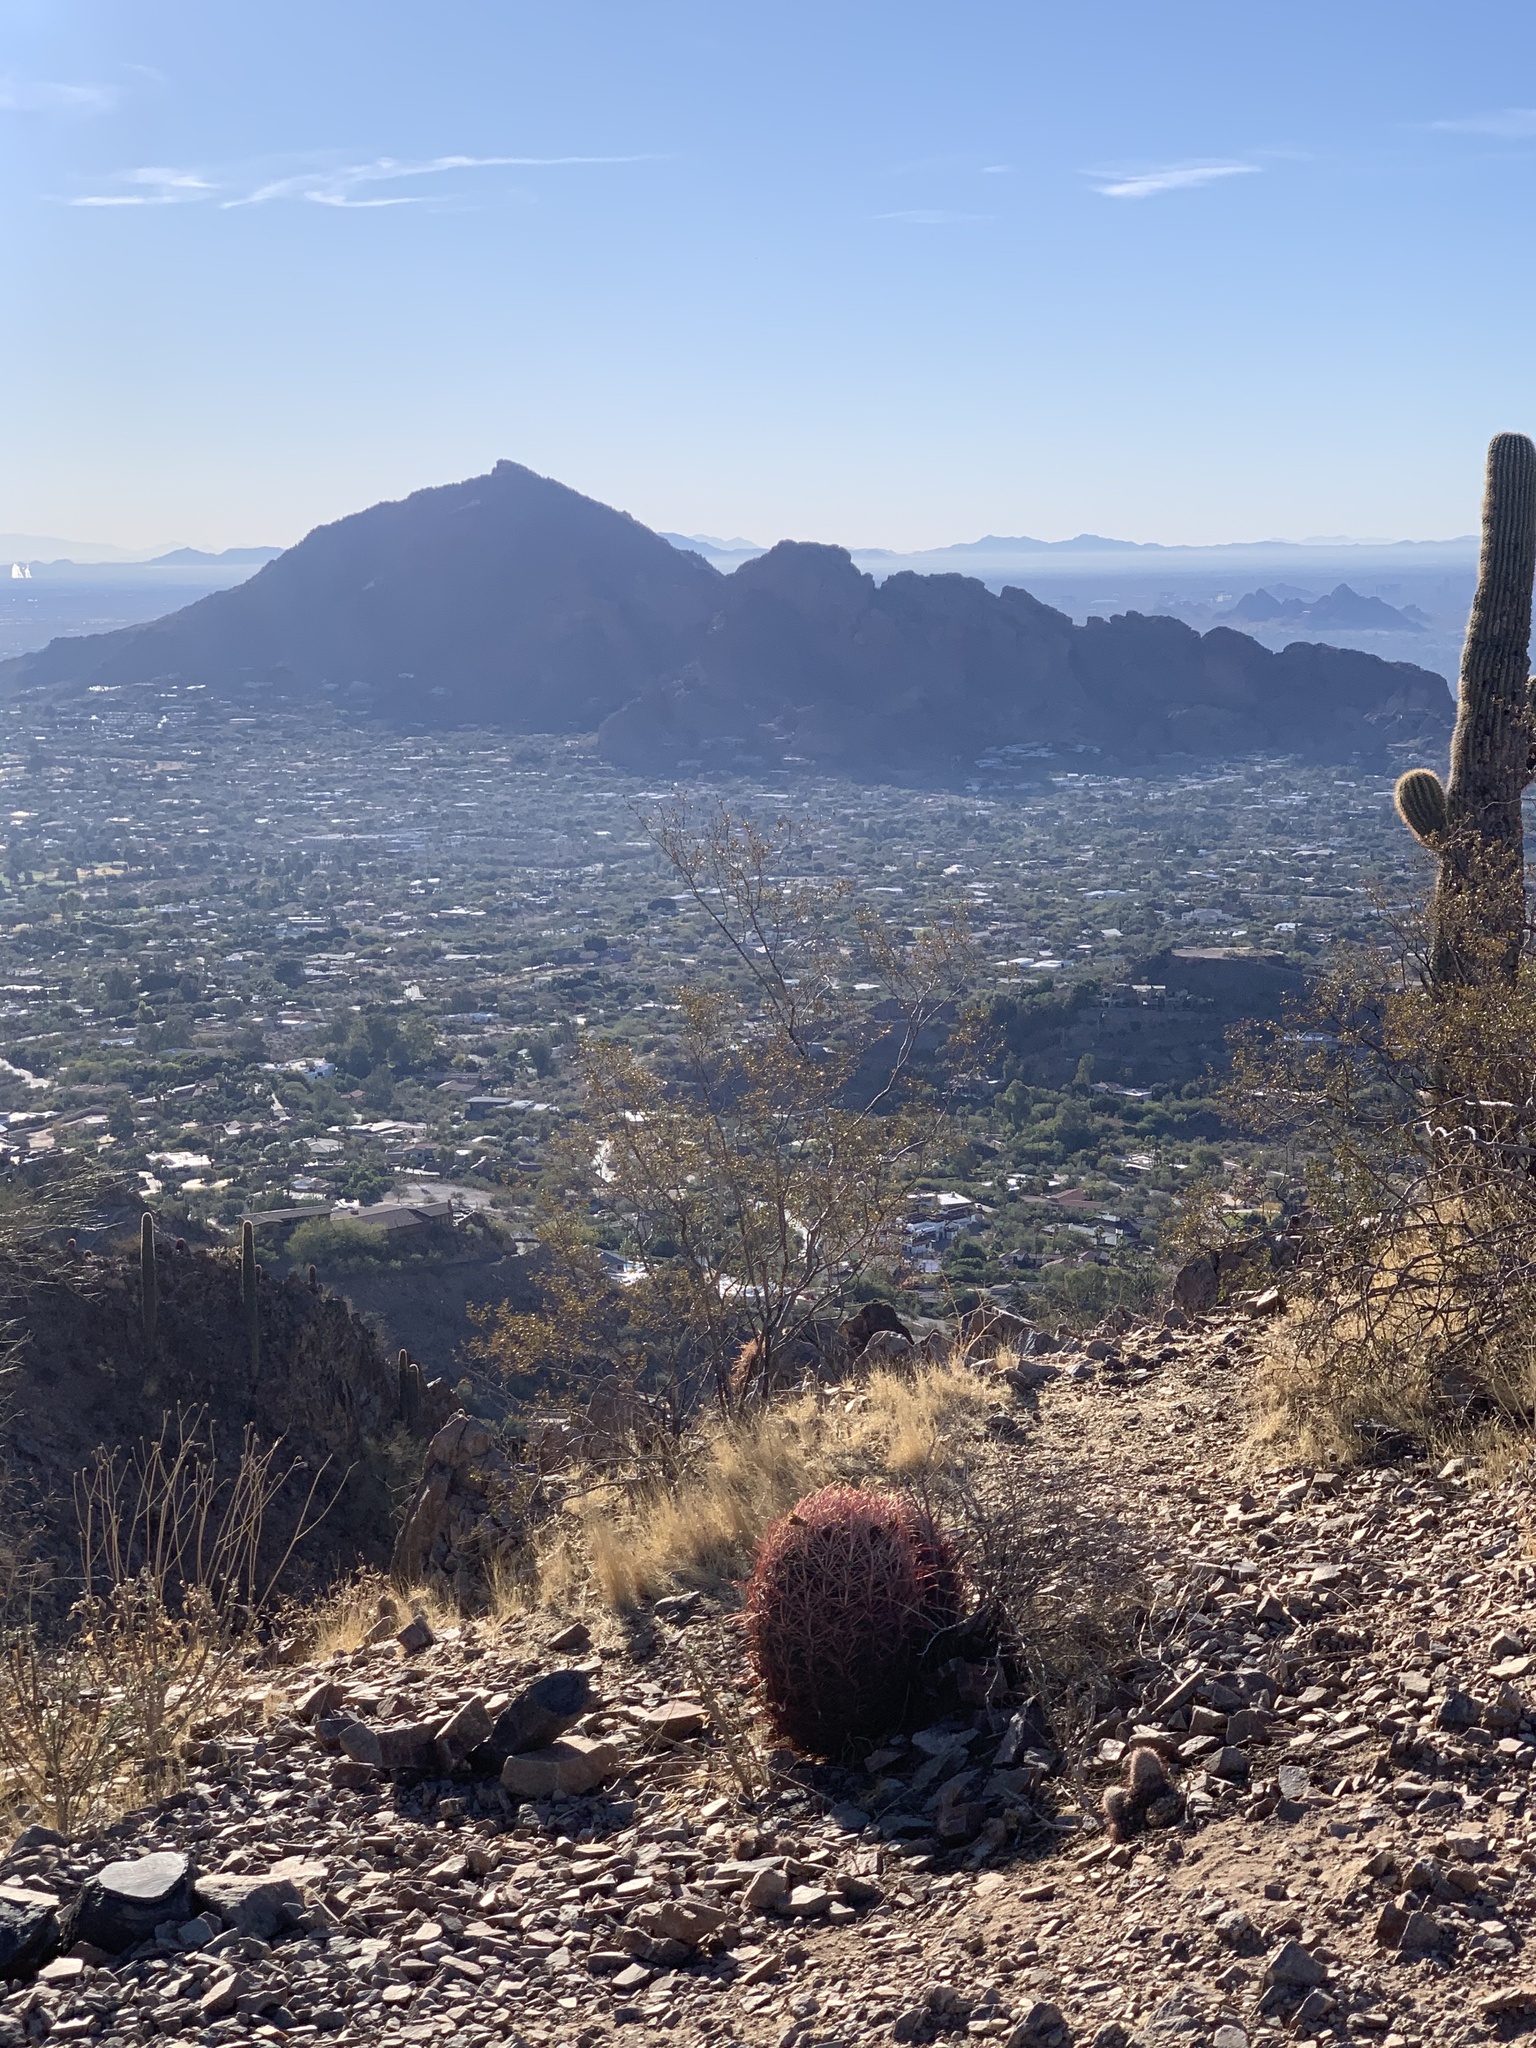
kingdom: Plantae
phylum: Tracheophyta
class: Magnoliopsida
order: Caryophyllales
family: Cactaceae
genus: Ferocactus
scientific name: Ferocactus cylindraceus
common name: California barrel cactus
